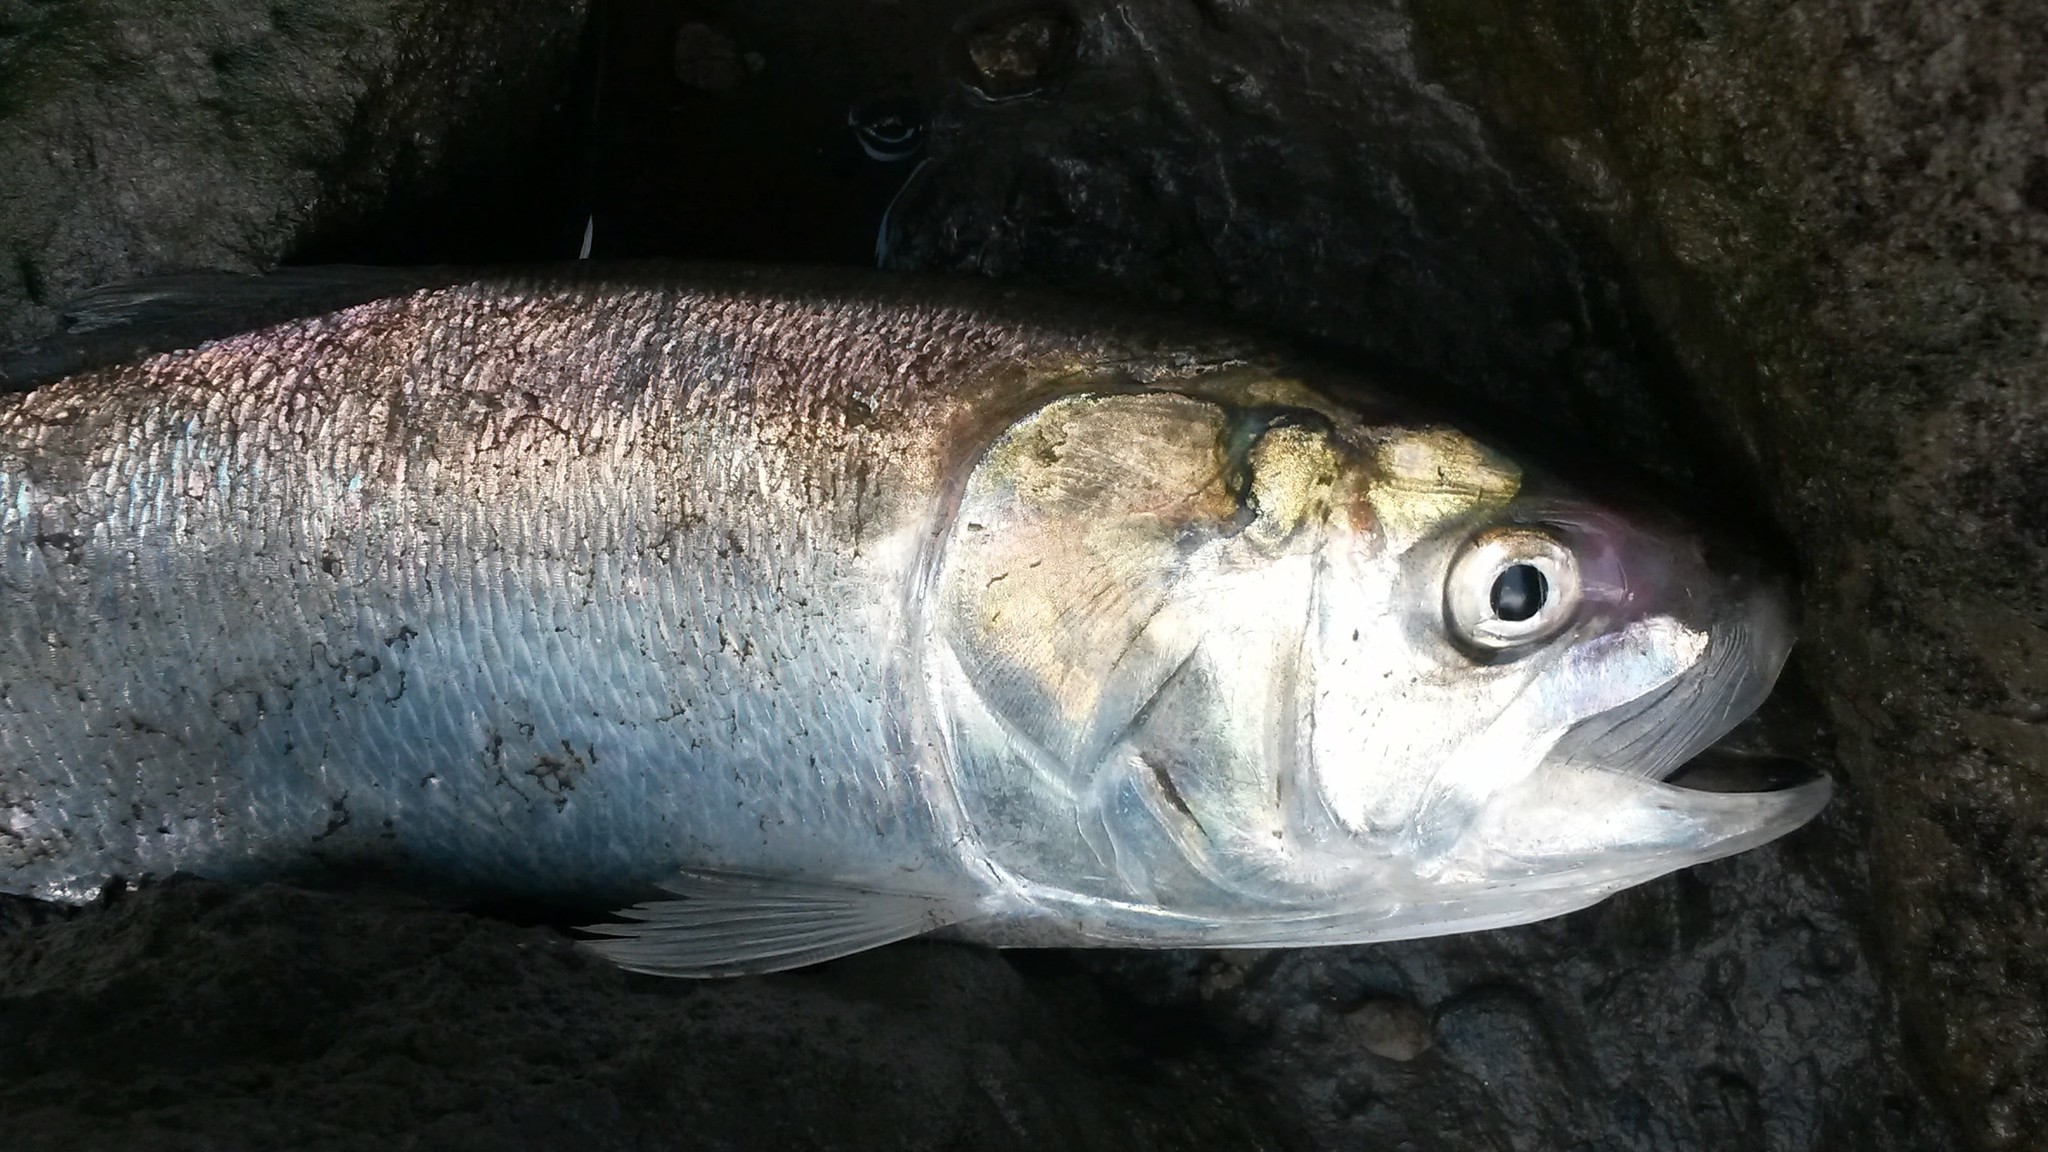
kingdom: Animalia
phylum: Chordata
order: Clupeiformes
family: Clupeidae
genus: Brevoortia
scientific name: Brevoortia tyrannus
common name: Atlantic menhaden
